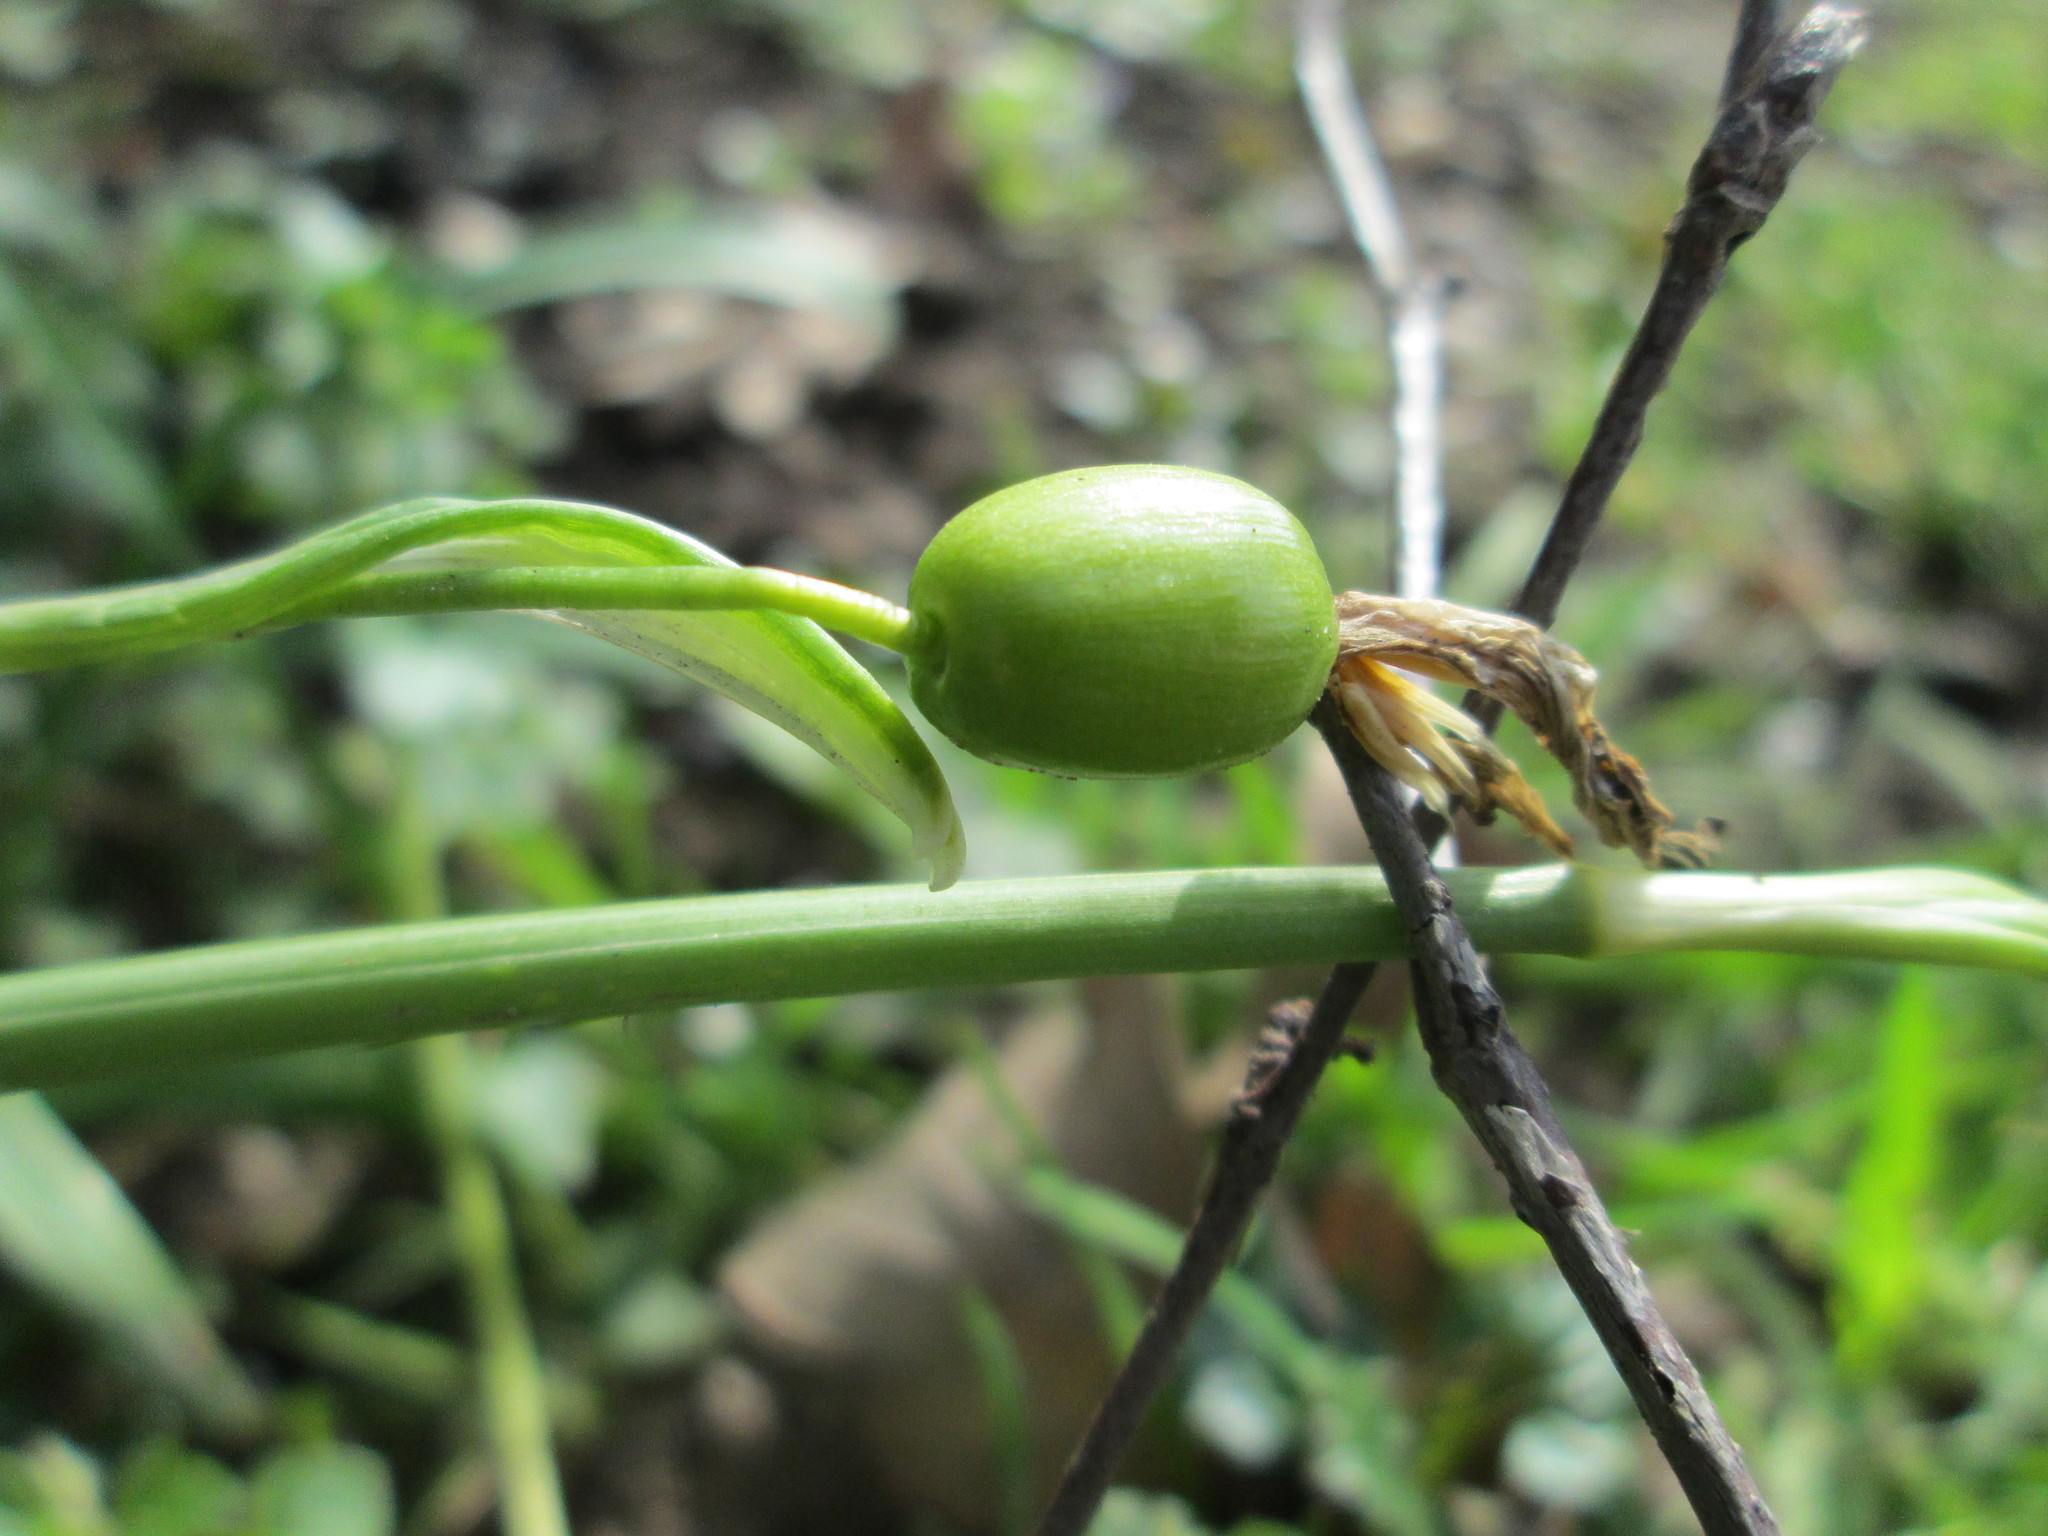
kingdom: Plantae
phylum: Tracheophyta
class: Liliopsida
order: Asparagales
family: Amaryllidaceae
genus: Galanthus
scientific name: Galanthus nivalis
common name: Snowdrop
